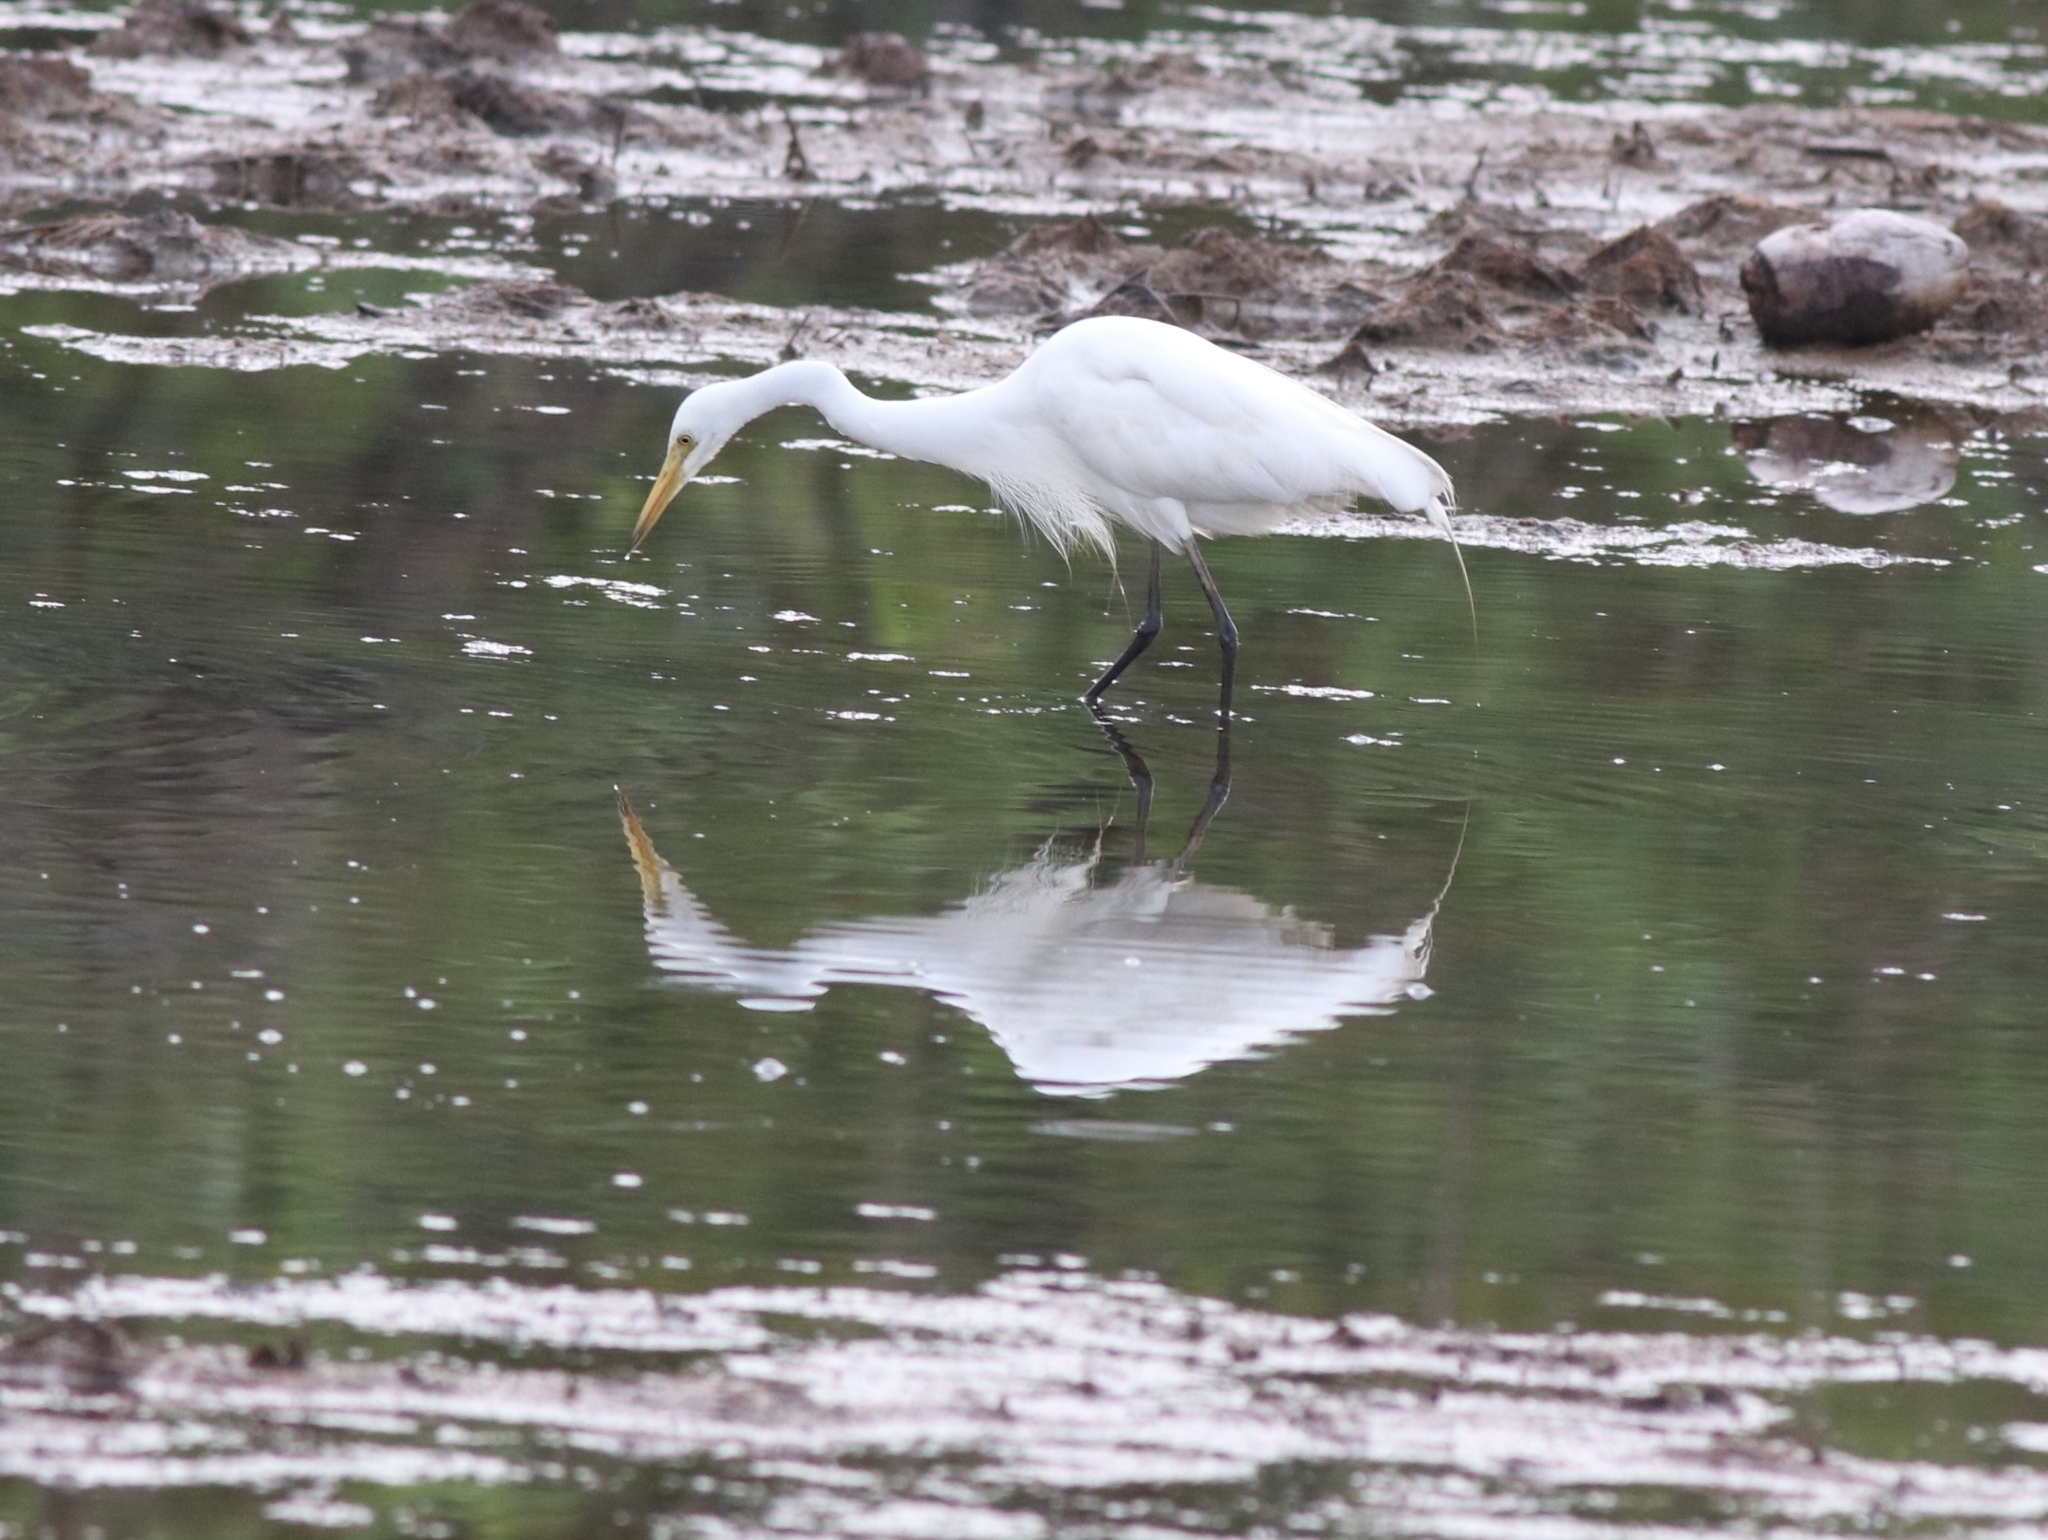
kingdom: Animalia
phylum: Chordata
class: Aves
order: Pelecaniformes
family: Ardeidae
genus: Egretta
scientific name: Egretta intermedia
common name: Intermediate egret
